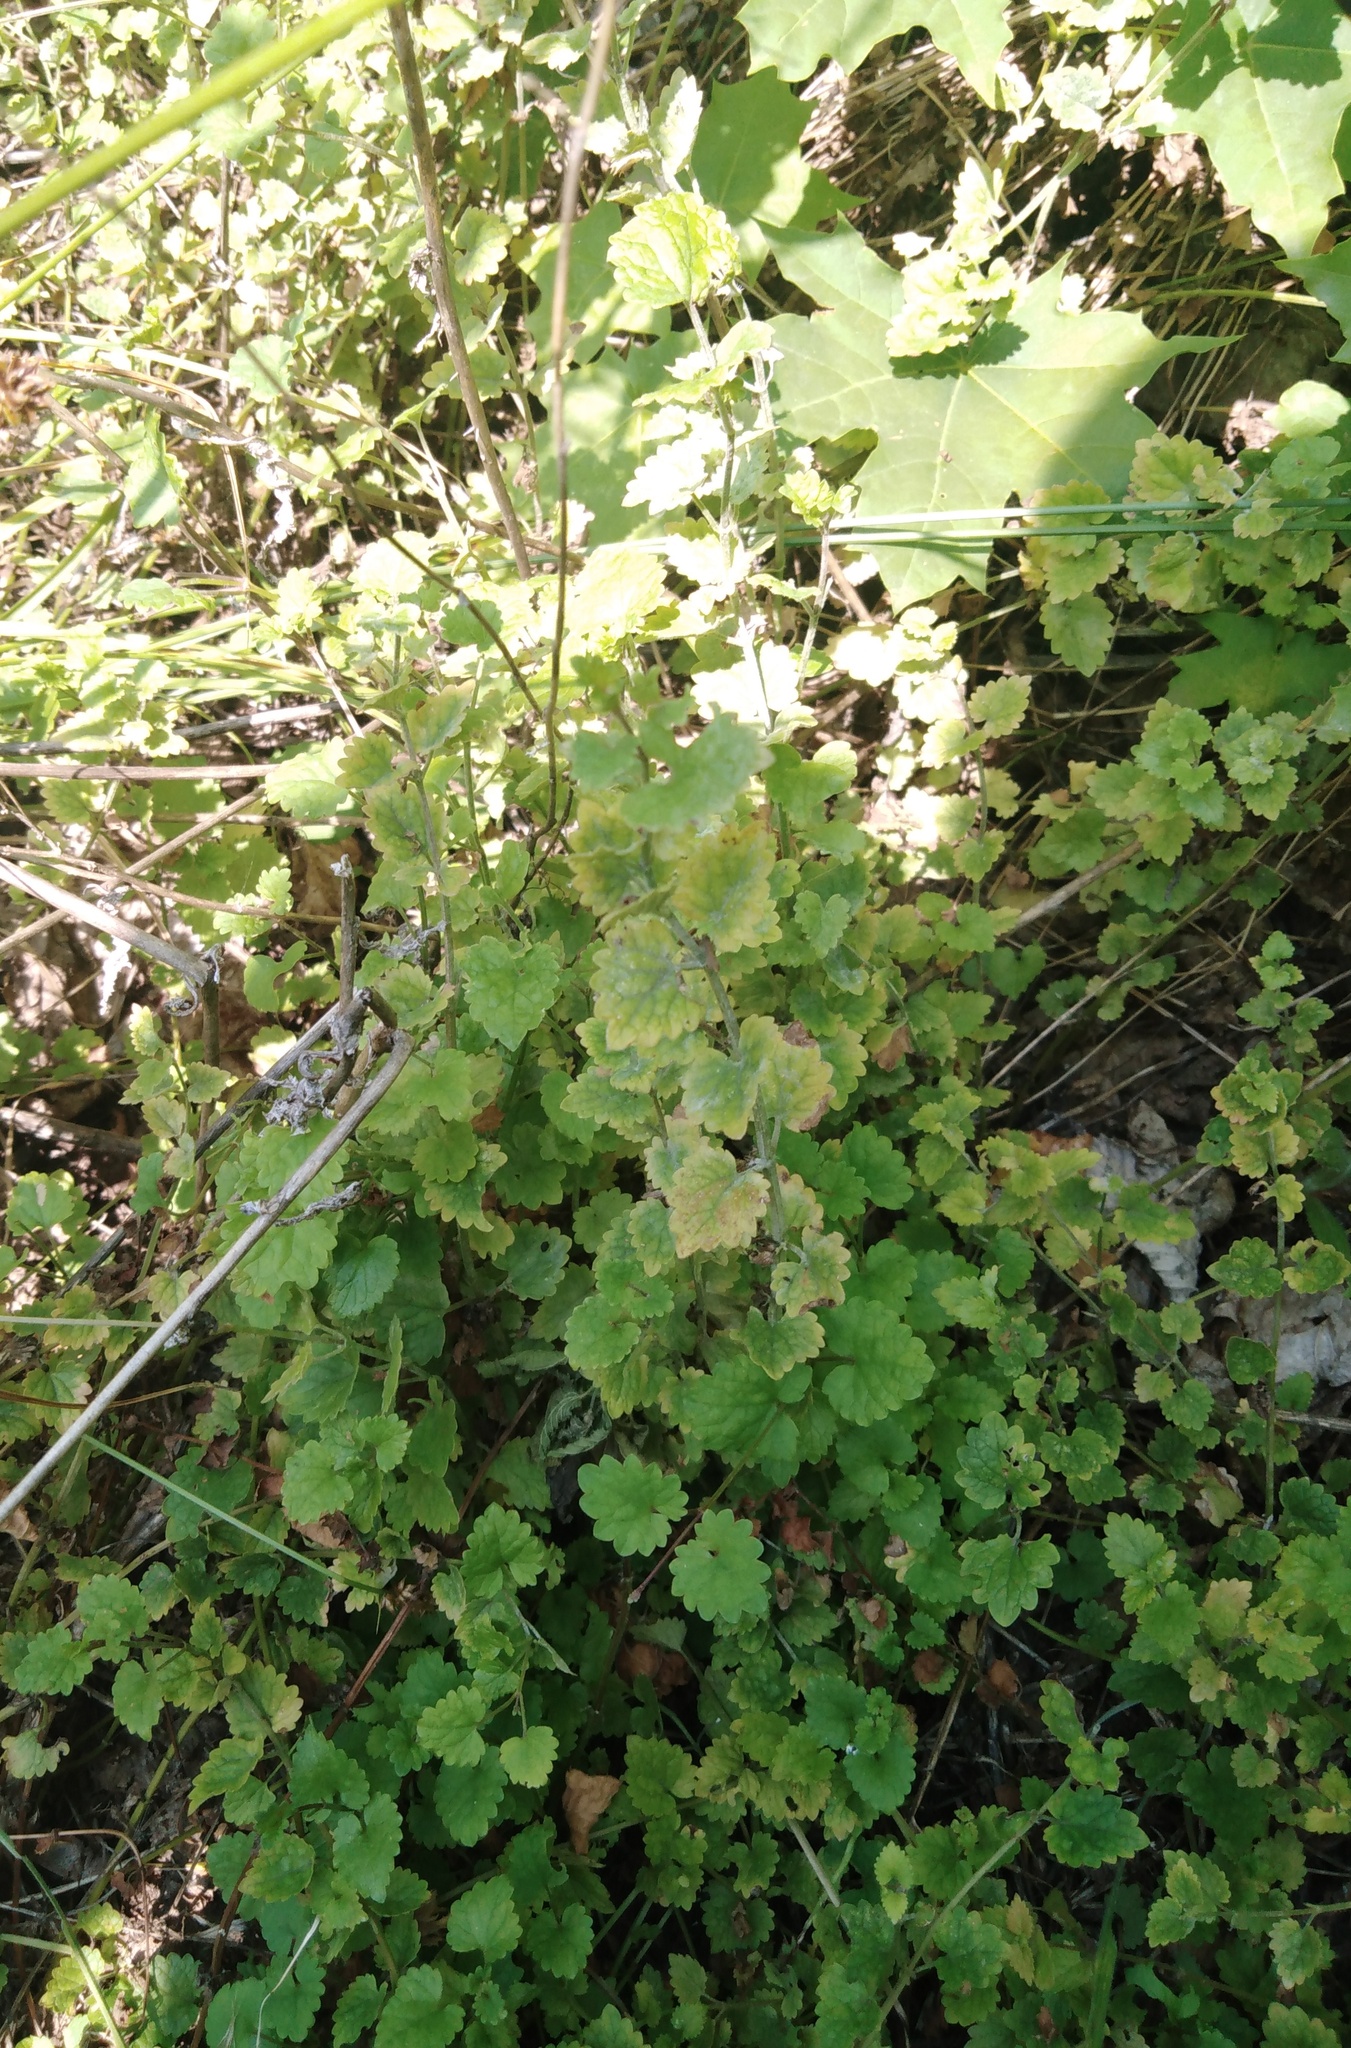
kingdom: Plantae
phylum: Tracheophyta
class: Magnoliopsida
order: Lamiales
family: Lamiaceae
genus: Glechoma
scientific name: Glechoma hederacea
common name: Ground ivy
